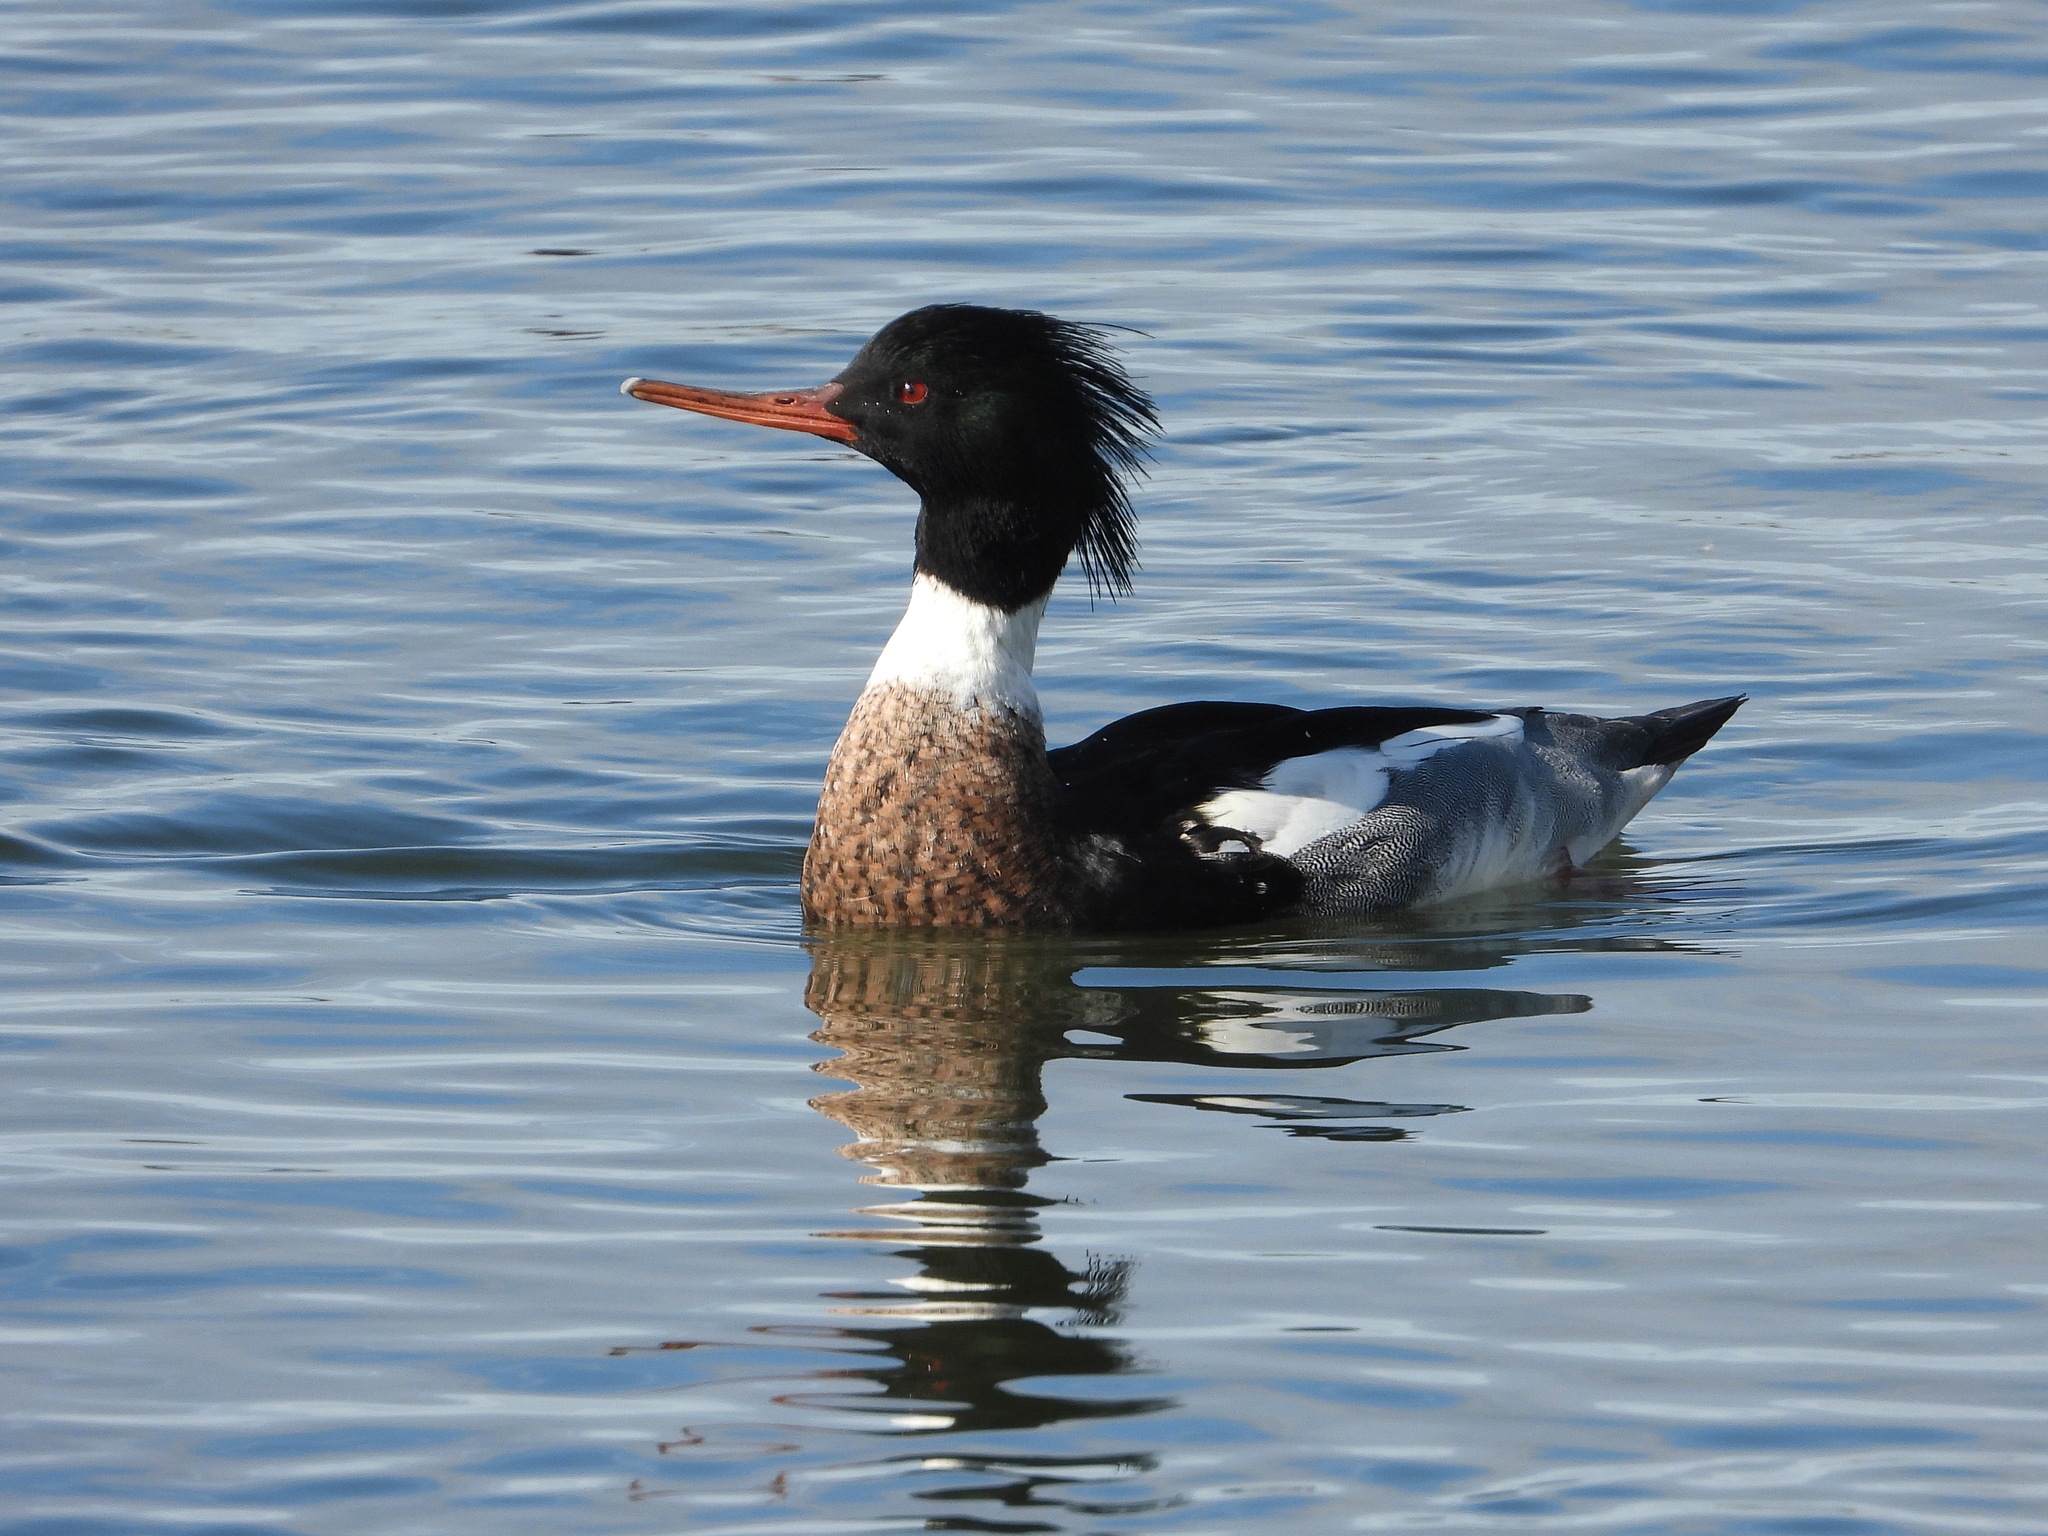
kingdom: Animalia
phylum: Chordata
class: Aves
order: Anseriformes
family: Anatidae
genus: Mergus
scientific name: Mergus serrator
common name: Red-breasted merganser
